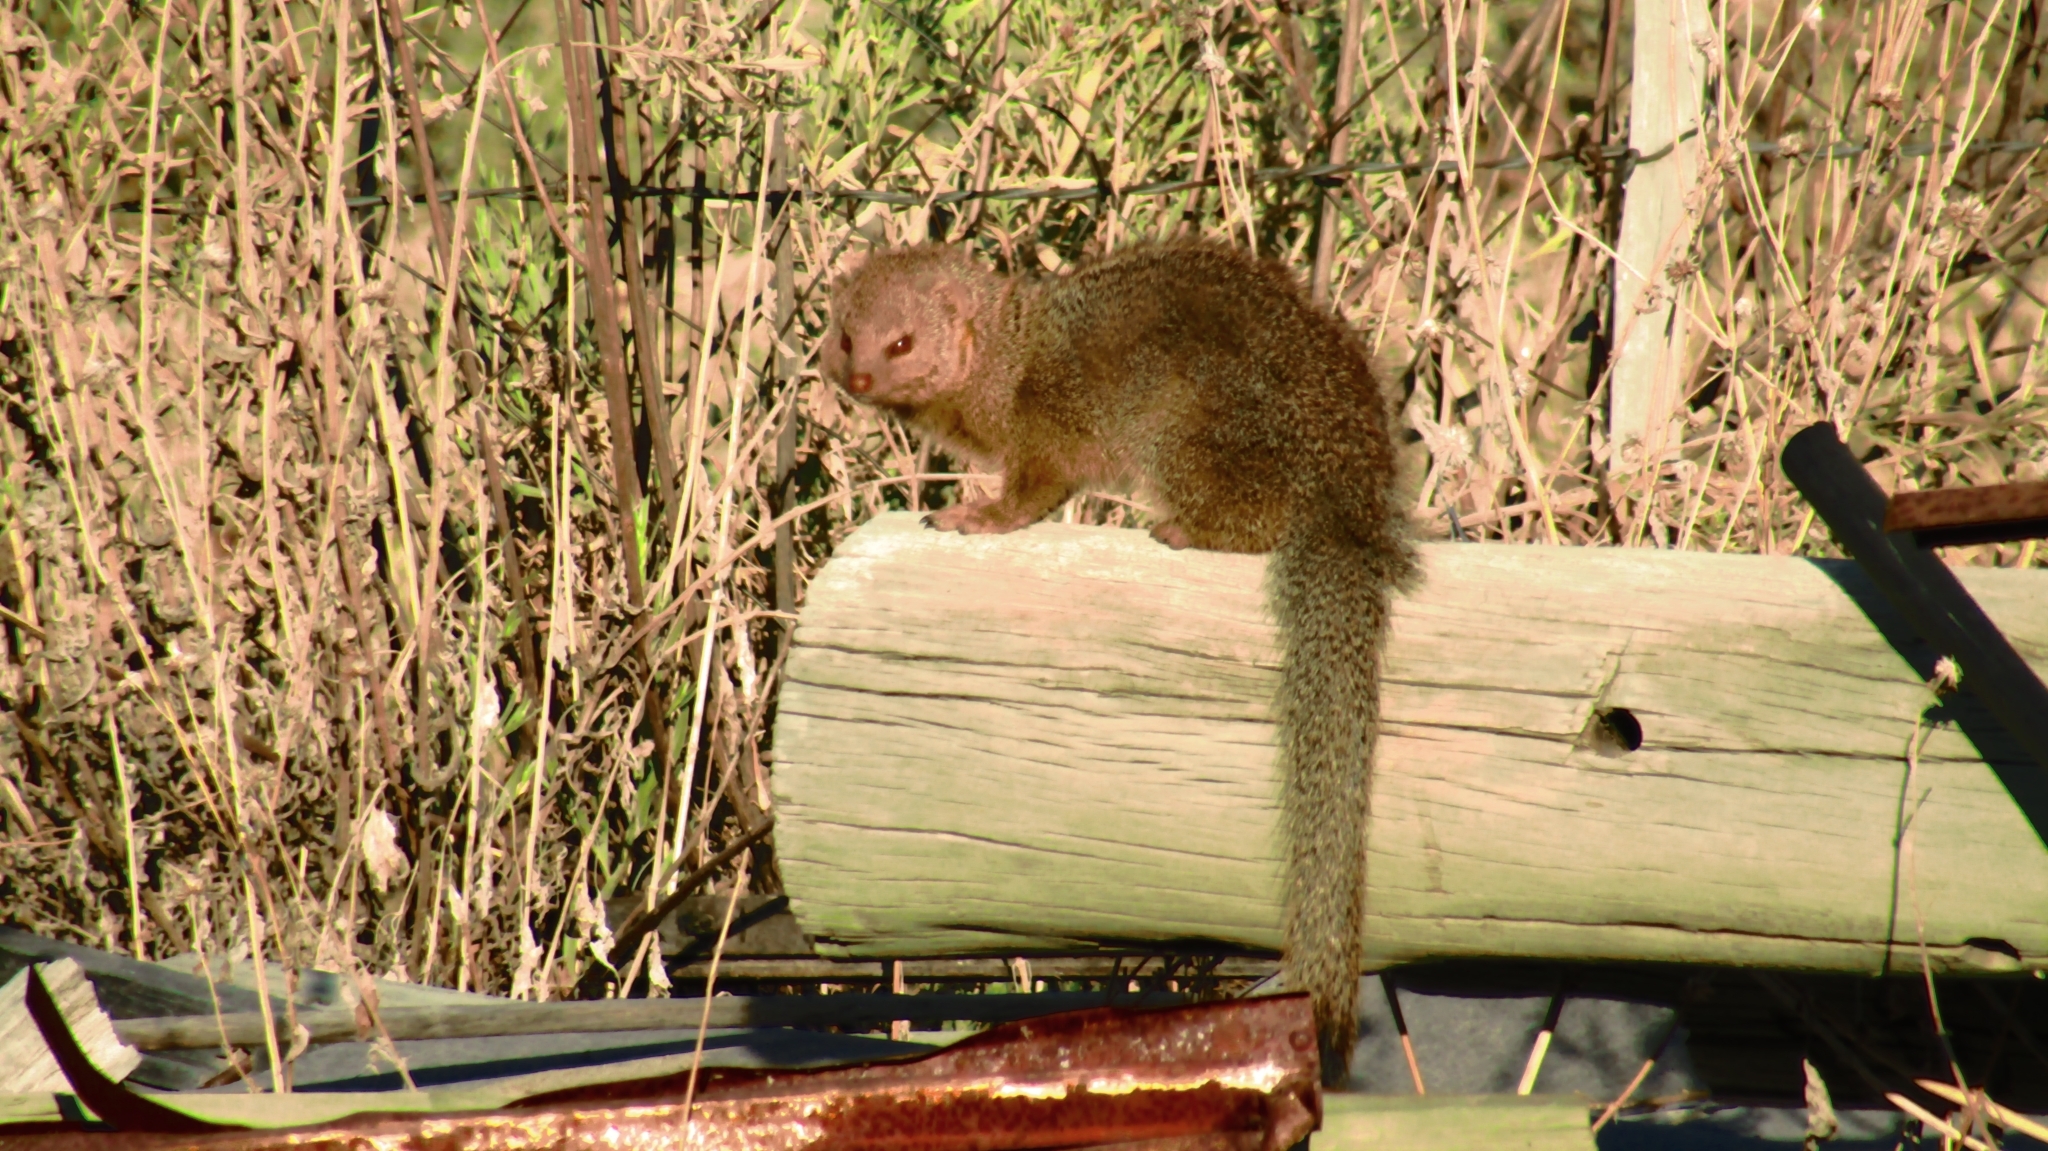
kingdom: Animalia
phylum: Chordata
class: Mammalia
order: Carnivora
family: Herpestidae
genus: Galerella
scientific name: Galerella sanguinea
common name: Slender mongoose
